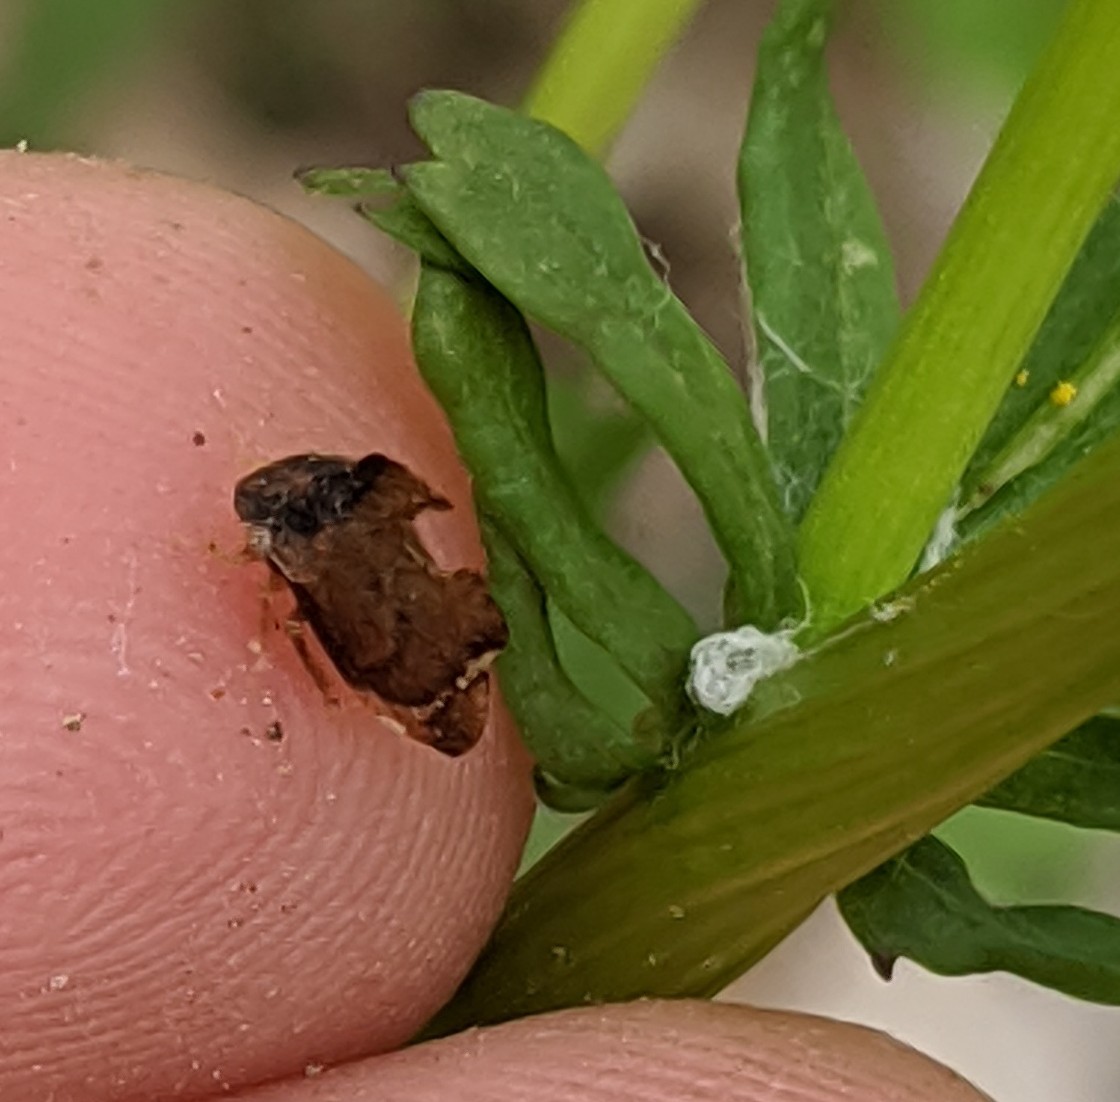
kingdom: Animalia
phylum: Arthropoda
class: Insecta
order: Hemiptera
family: Membracidae
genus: Entylia
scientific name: Entylia carinata
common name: Keeled treehopper
